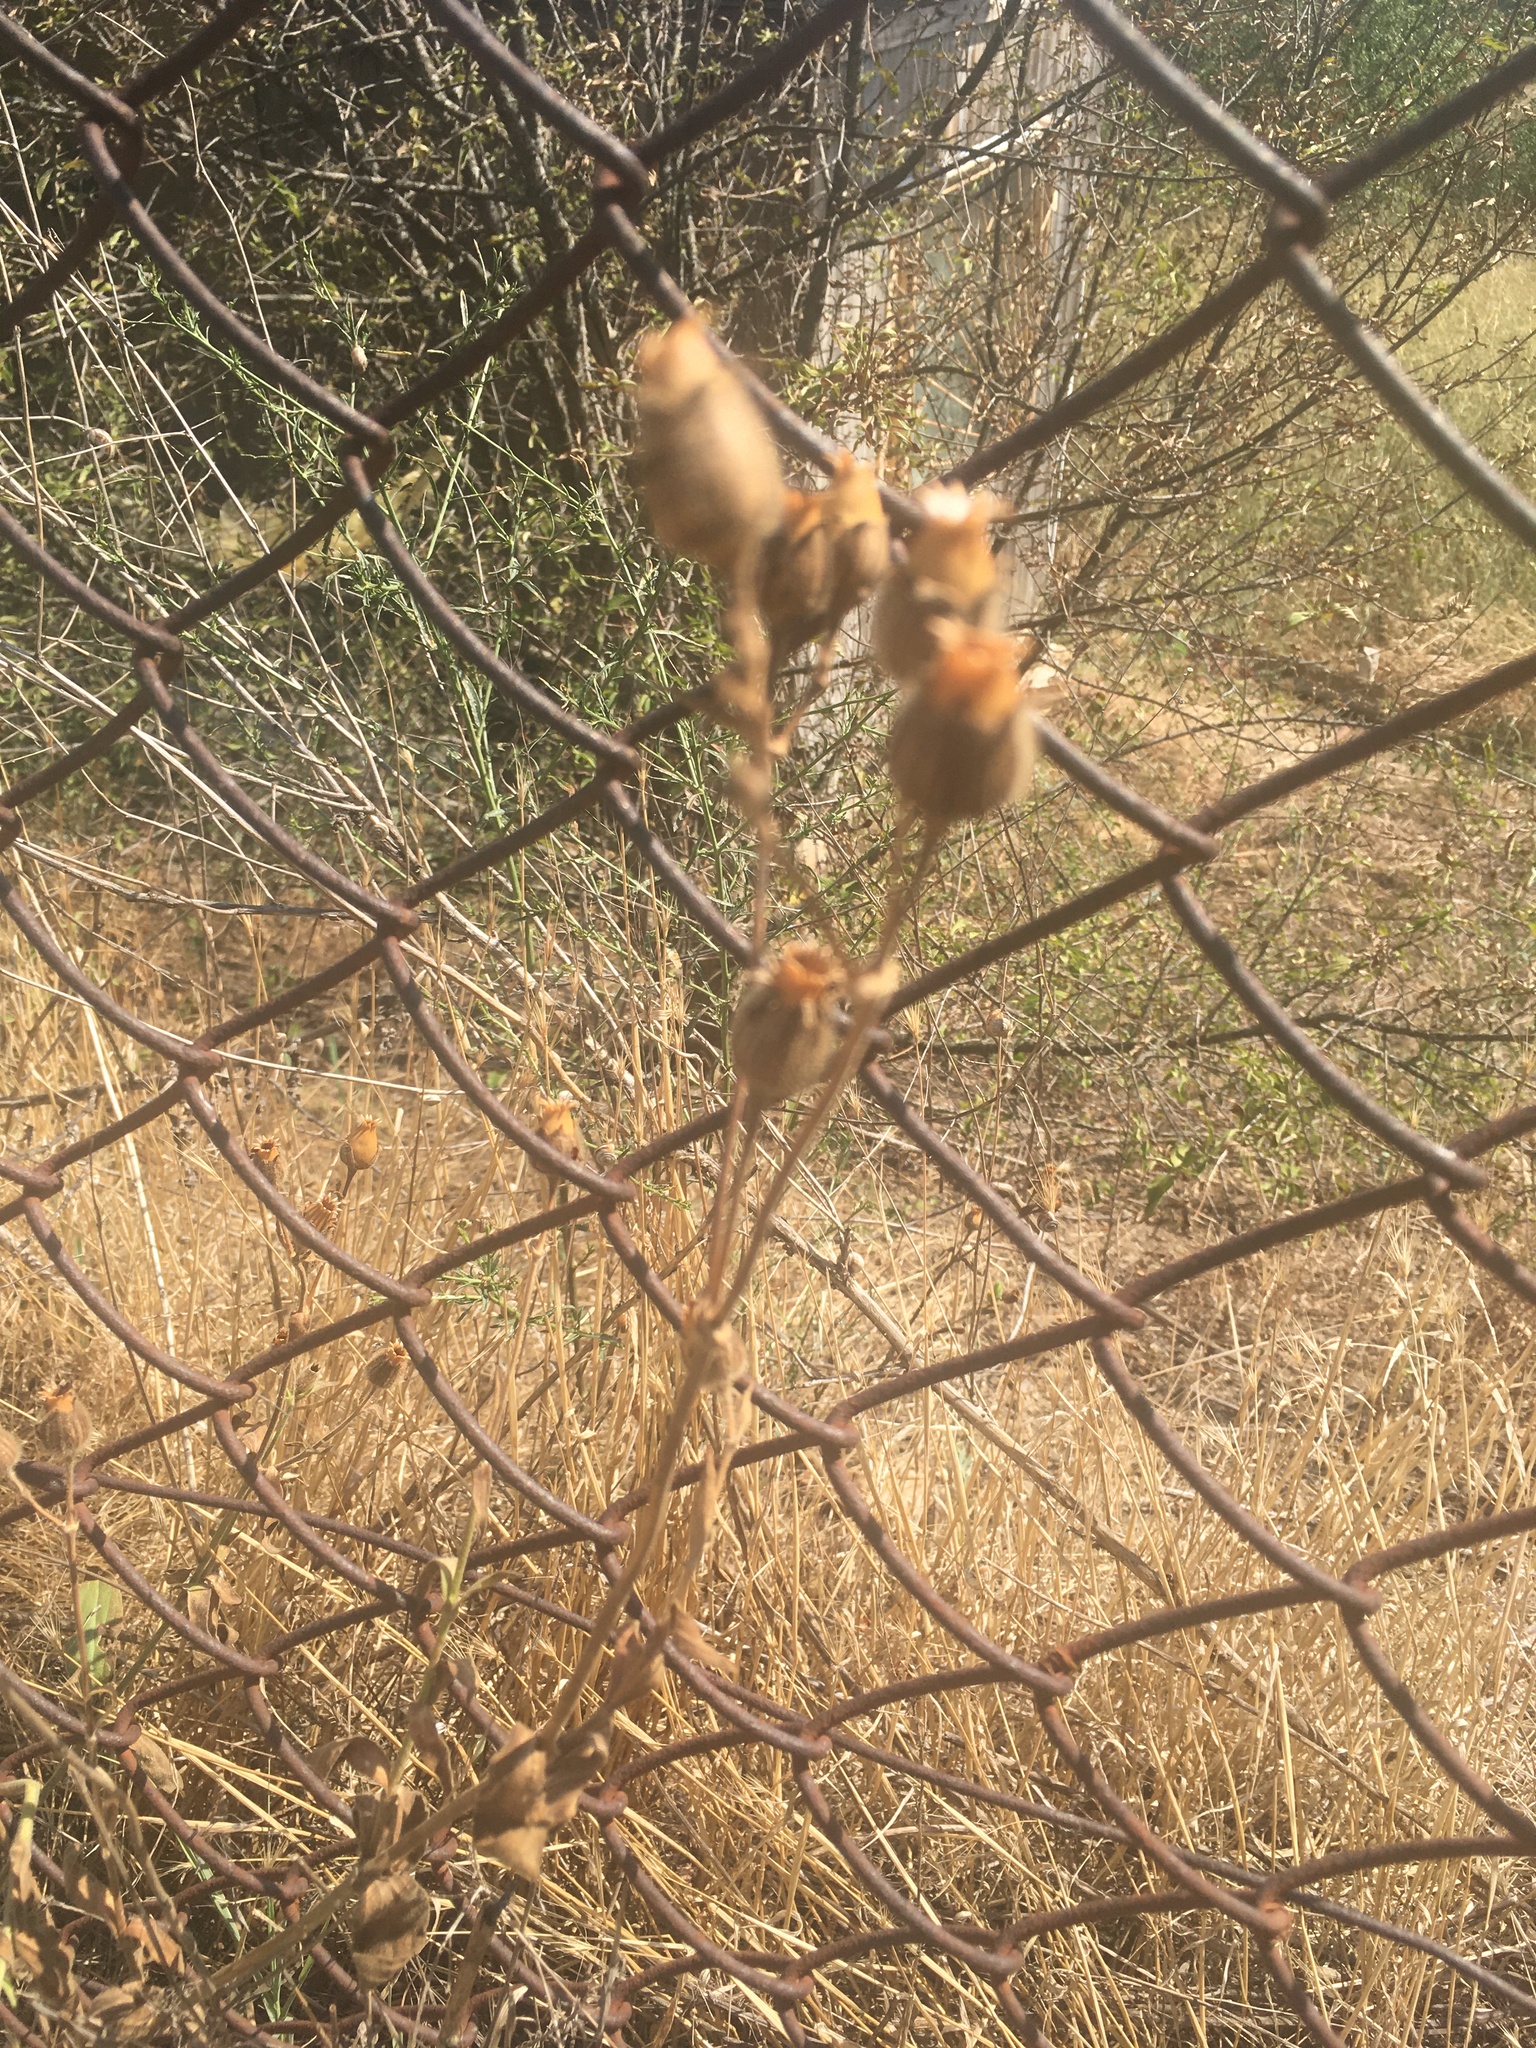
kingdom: Plantae
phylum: Tracheophyta
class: Magnoliopsida
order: Caryophyllales
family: Caryophyllaceae
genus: Silene
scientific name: Silene latifolia
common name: White campion
